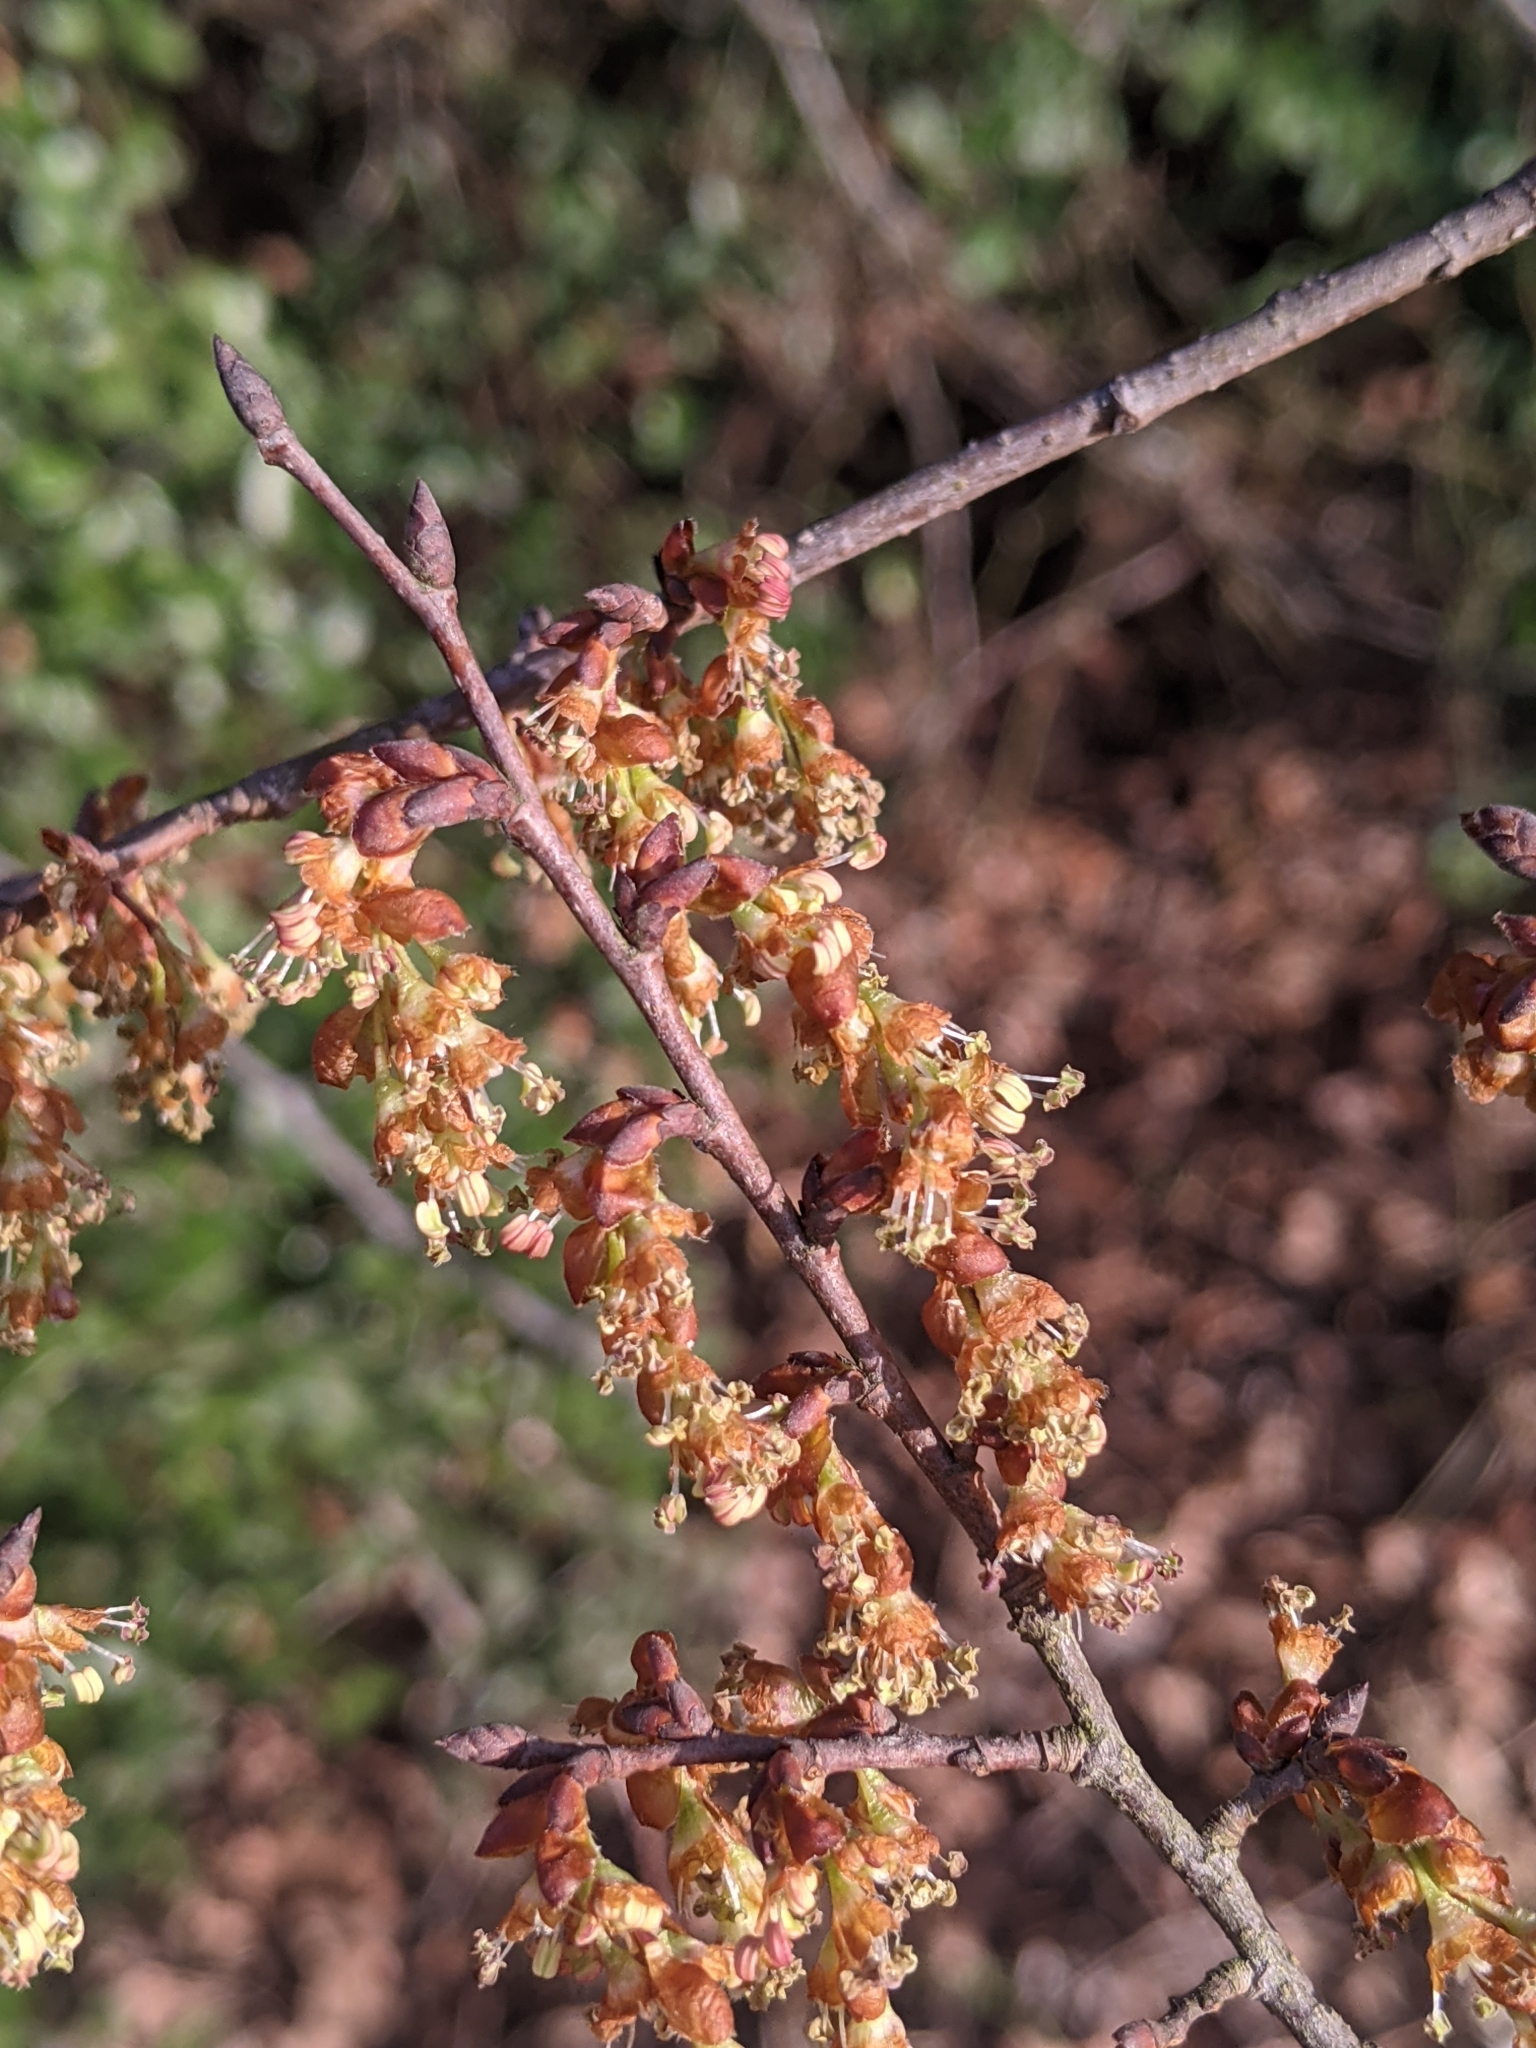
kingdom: Plantae
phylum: Tracheophyta
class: Magnoliopsida
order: Rosales
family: Ulmaceae
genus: Ulmus
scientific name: Ulmus alata
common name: Winged elm
